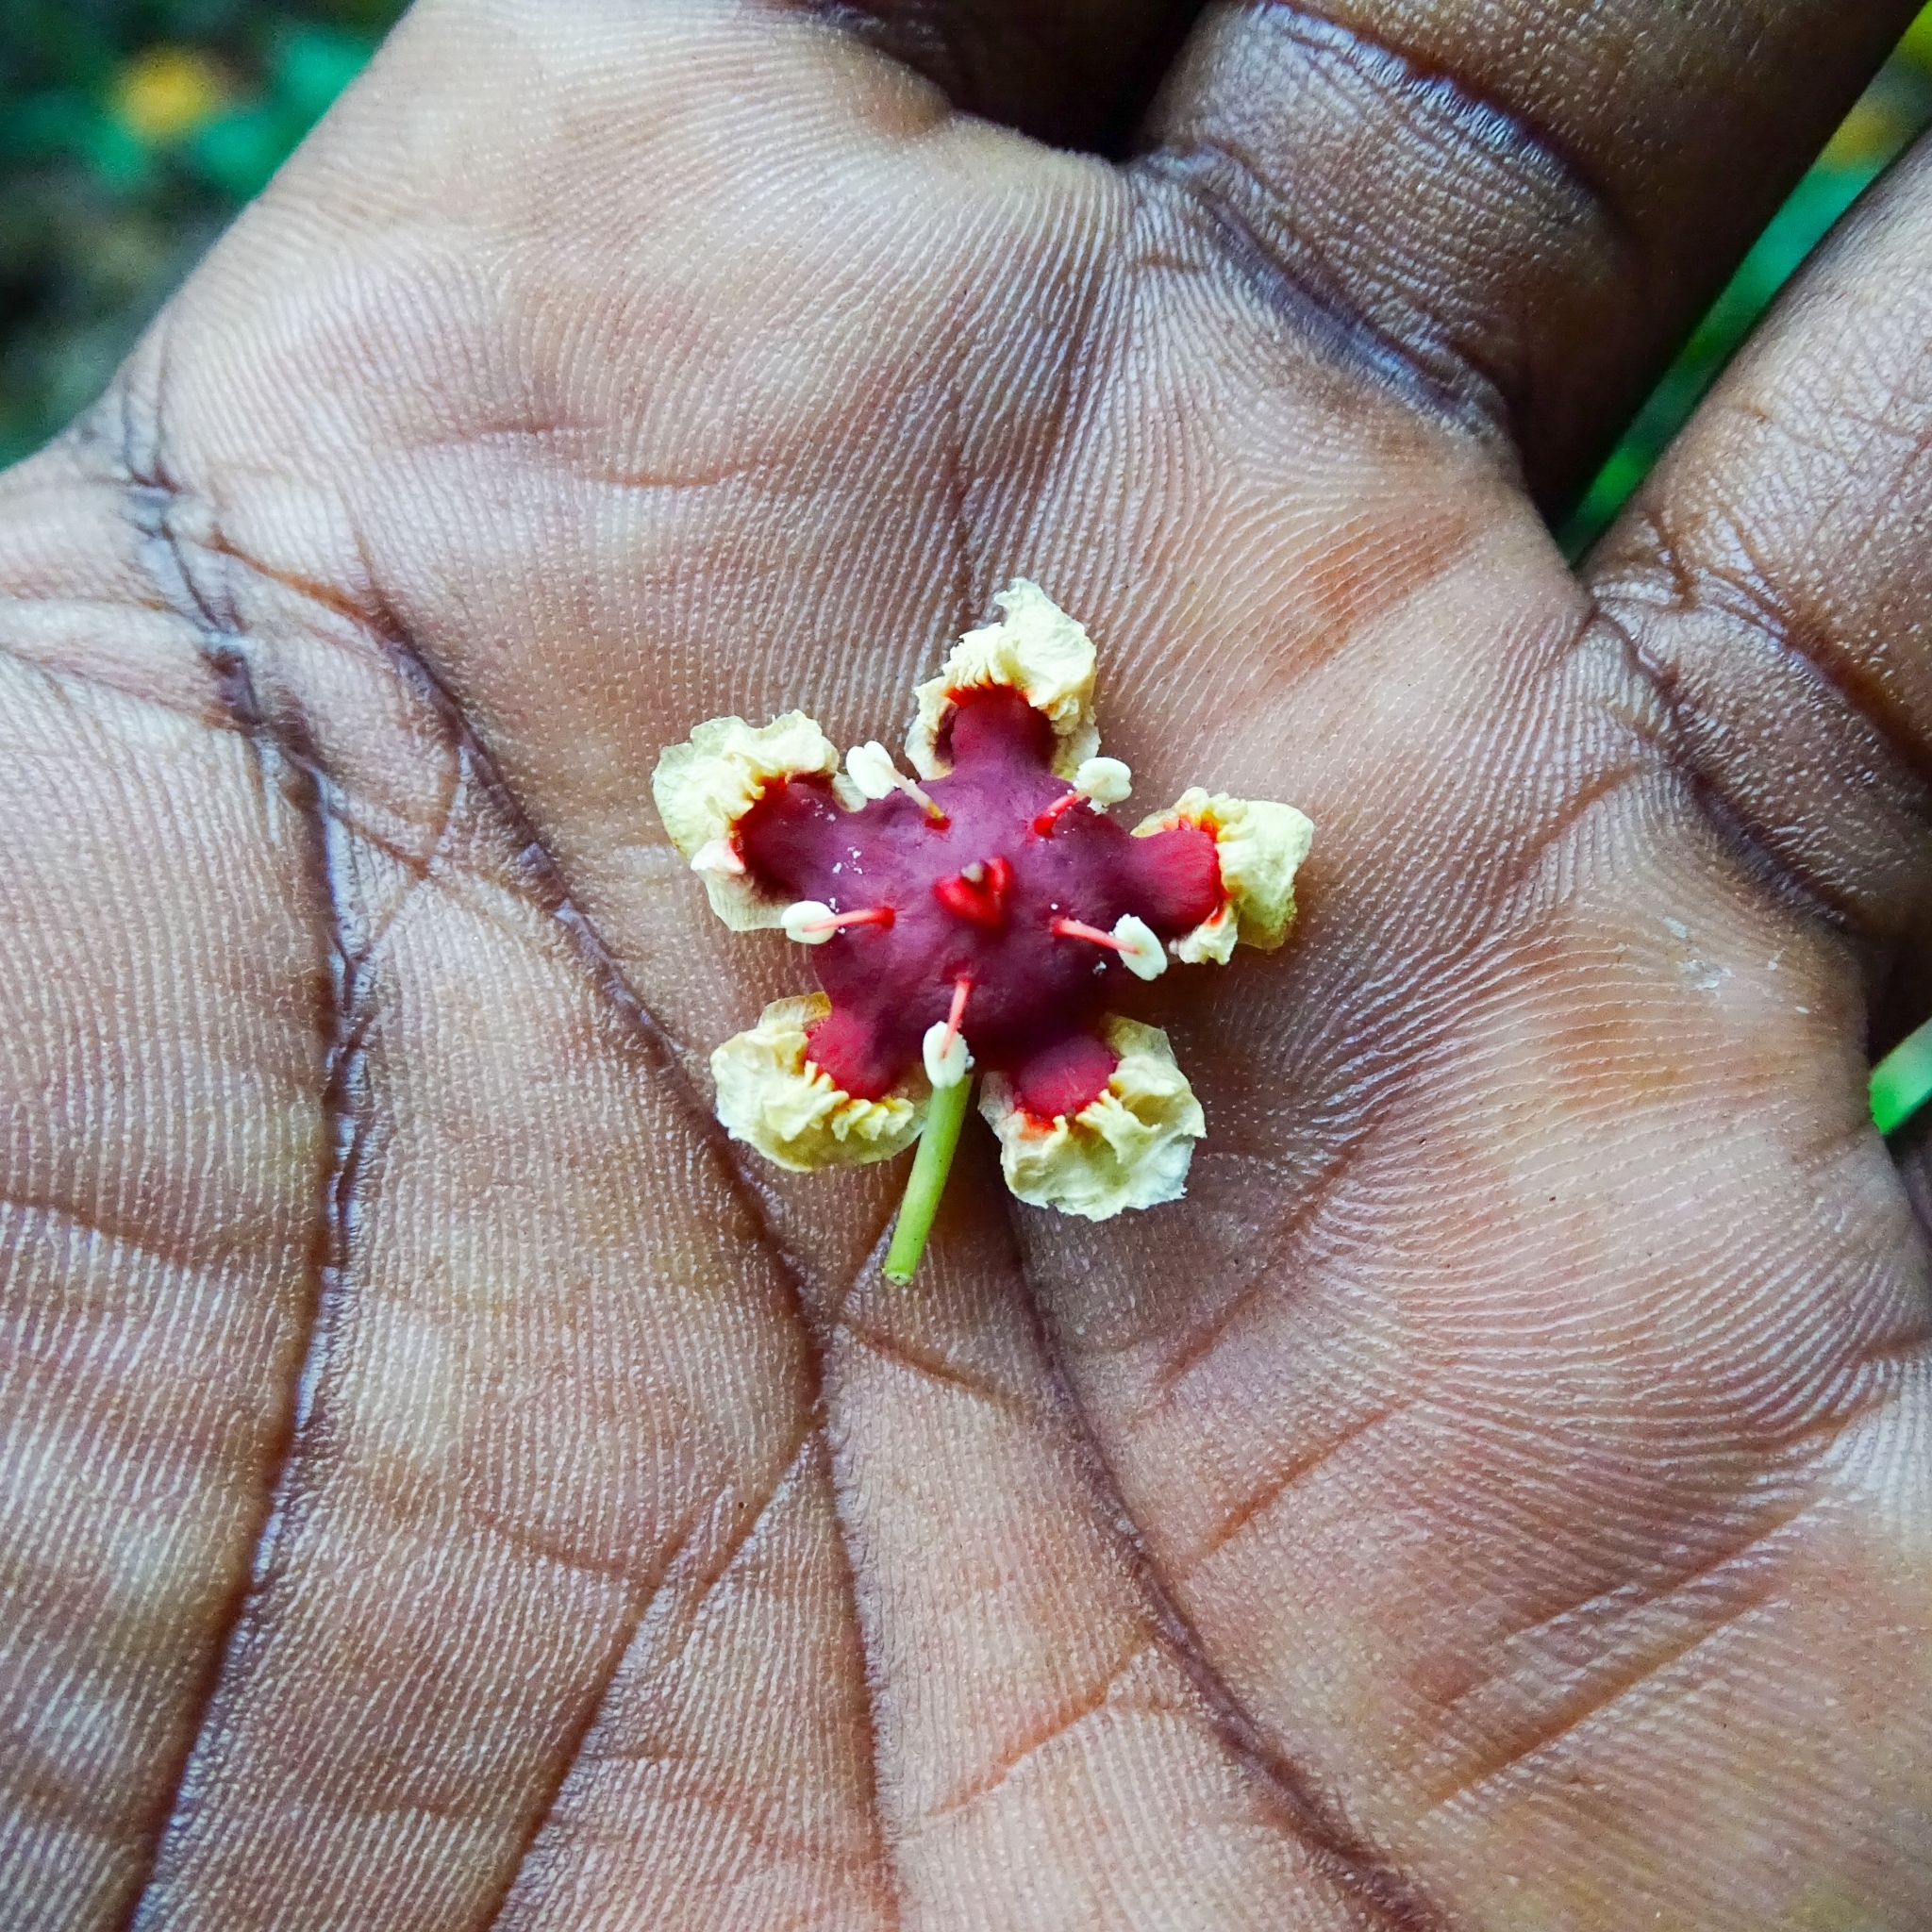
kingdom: Plantae
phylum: Tracheophyta
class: Magnoliopsida
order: Celastrales
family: Celastraceae
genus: Lophopetalum
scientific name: Lophopetalum wightianum
